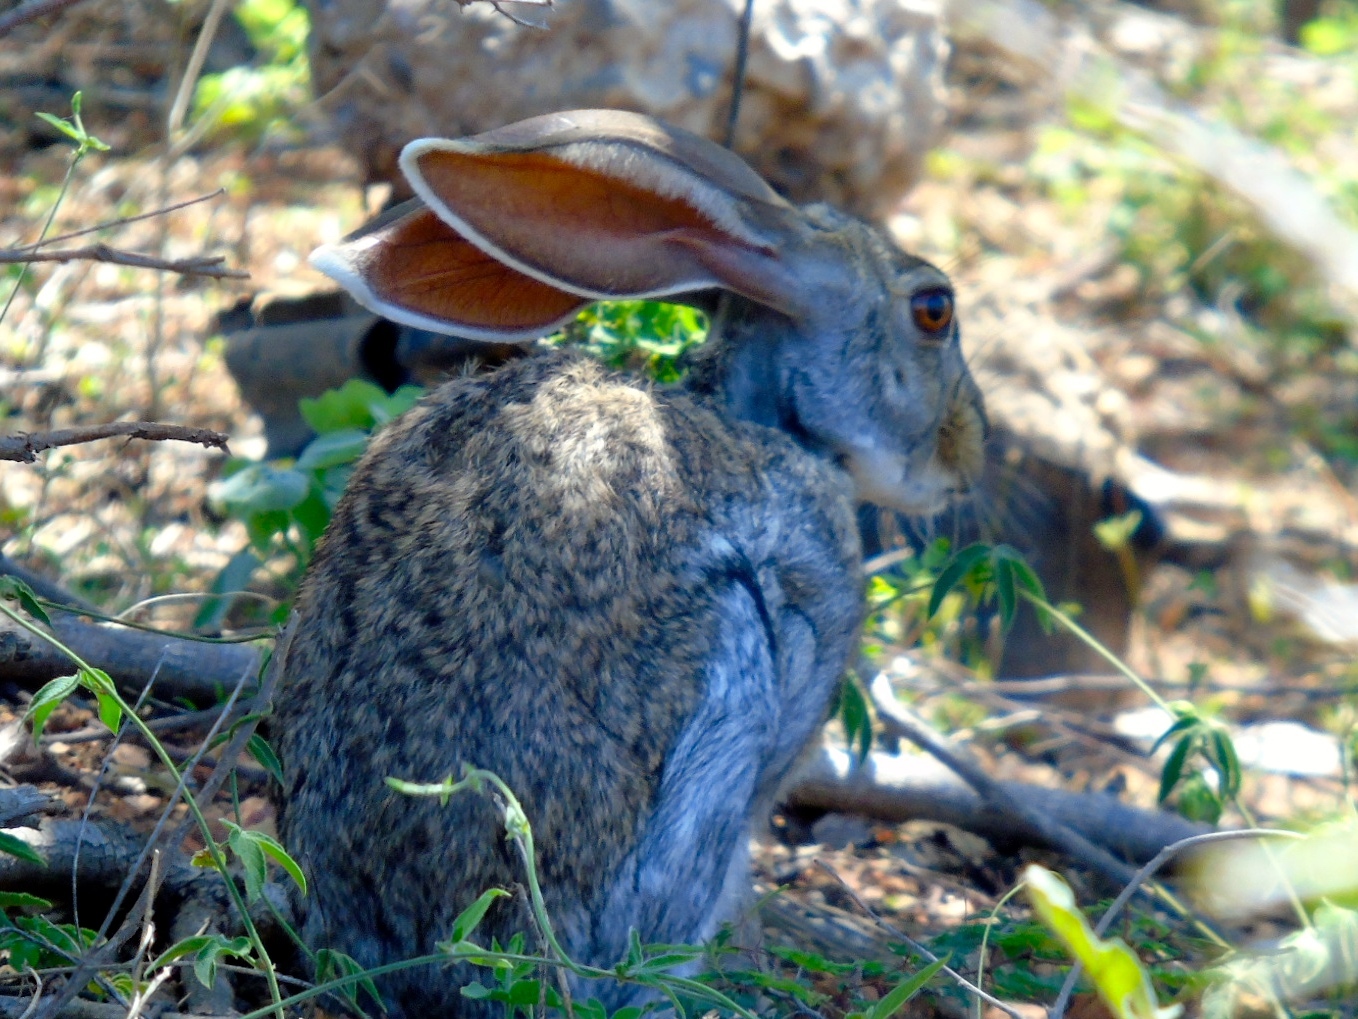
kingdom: Animalia
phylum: Chordata
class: Mammalia
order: Lagomorpha
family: Leporidae
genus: Lepus
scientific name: Lepus alleni
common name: Antelope jackrabbit
